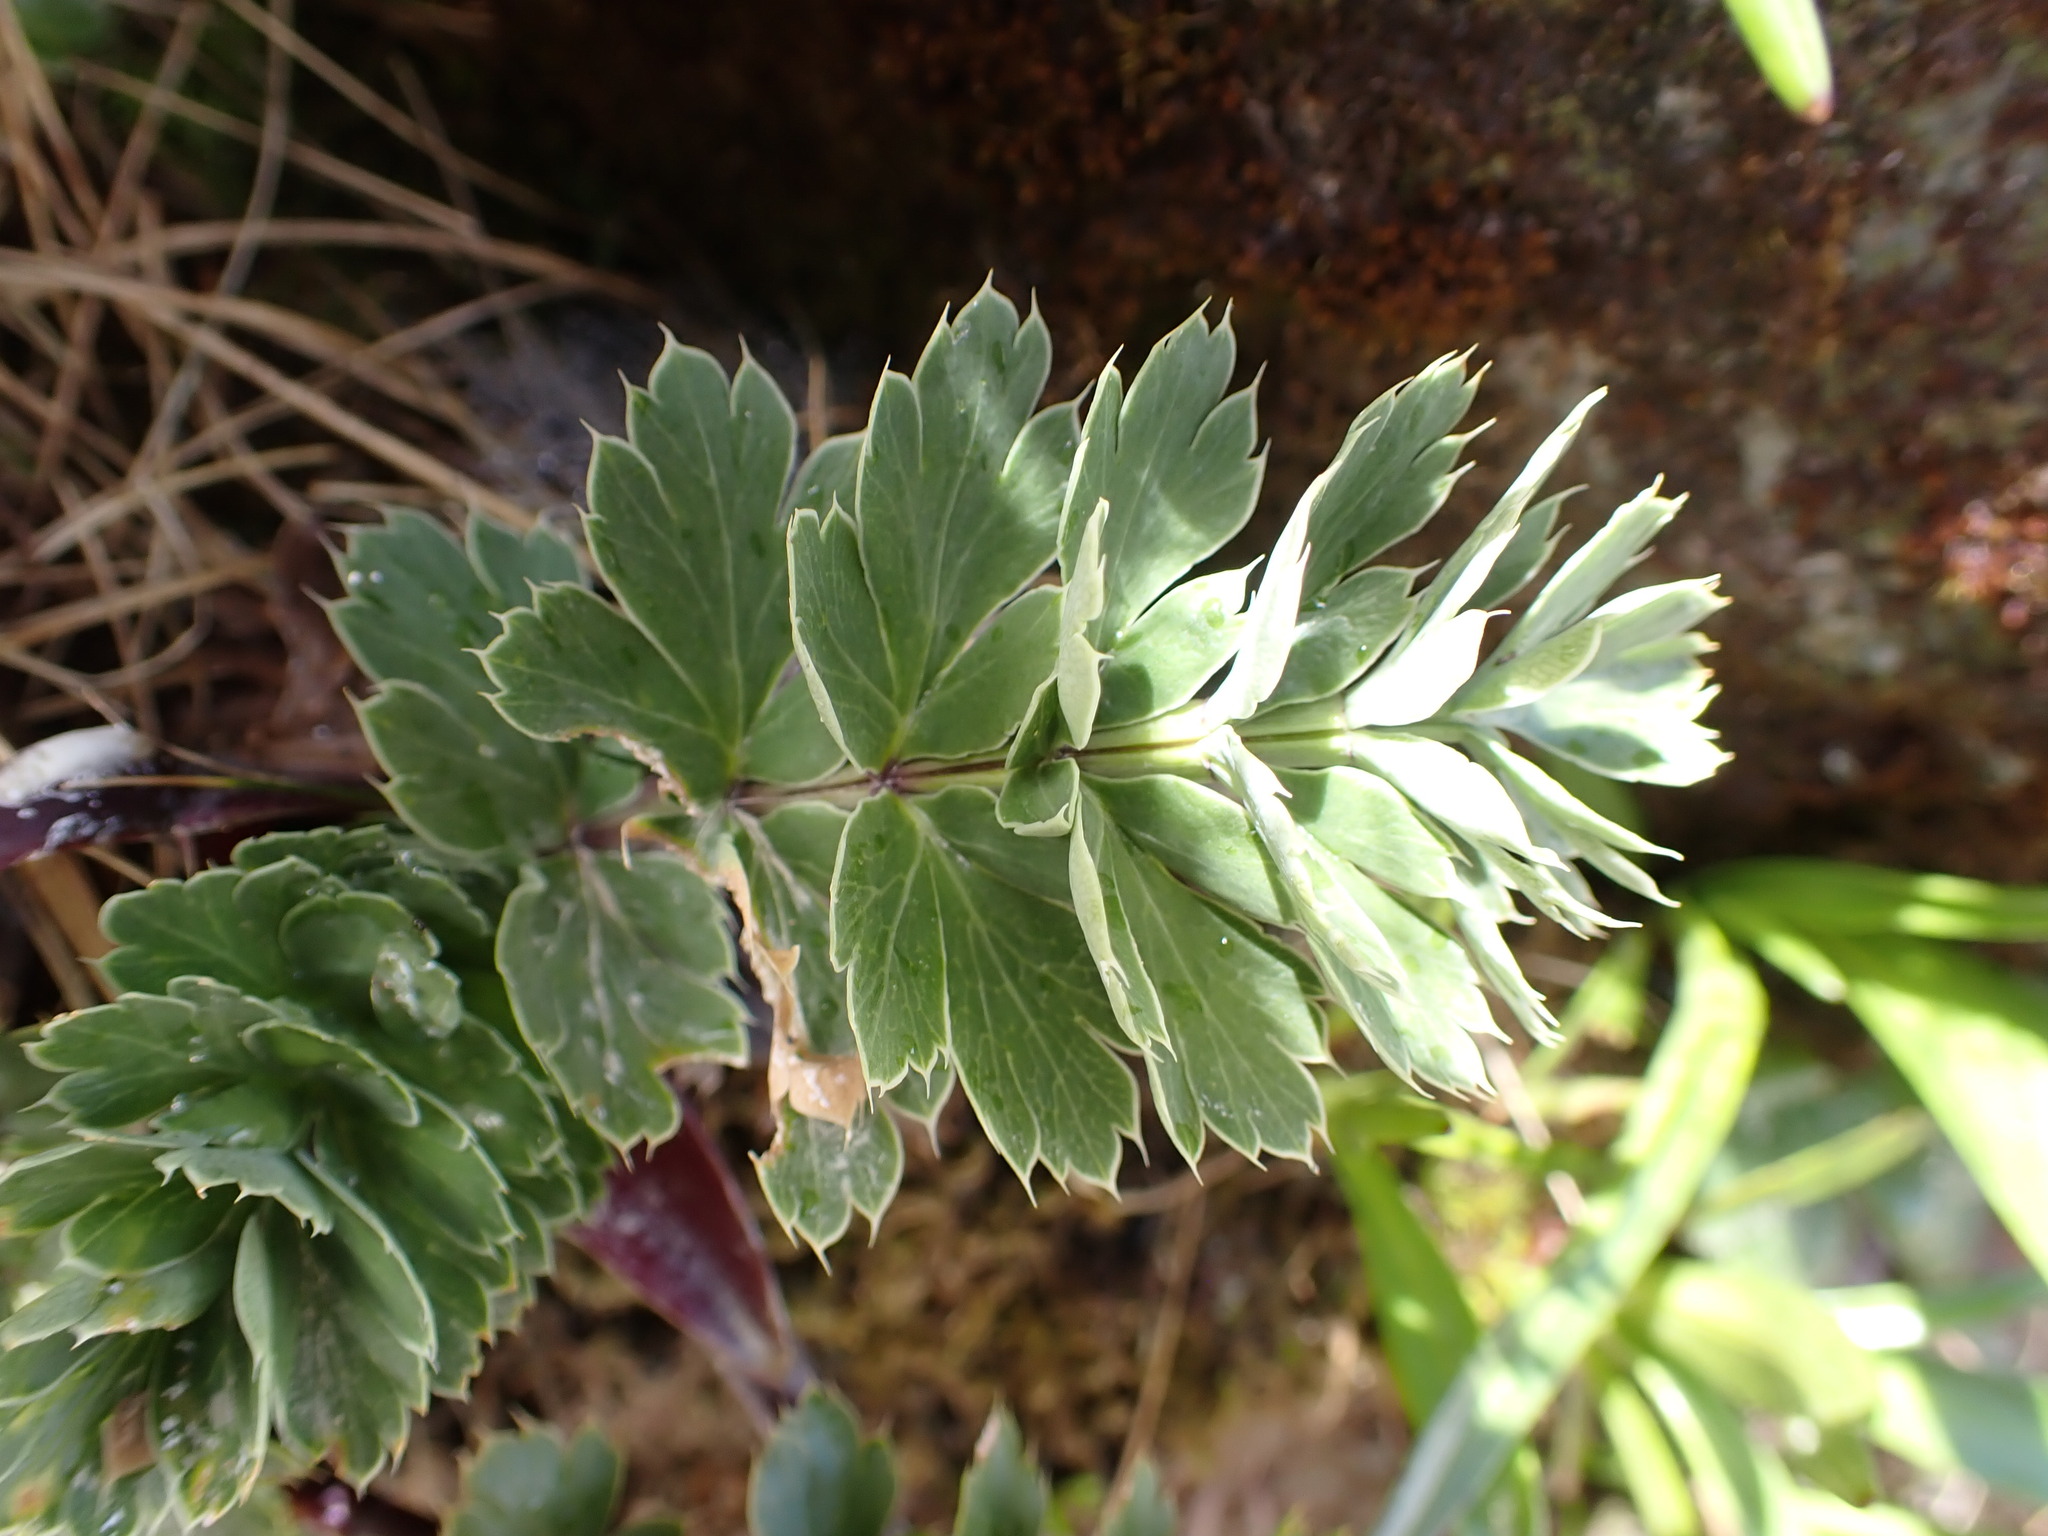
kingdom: Plantae
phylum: Tracheophyta
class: Magnoliopsida
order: Apiales
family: Apiaceae
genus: Anisotome
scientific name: Anisotome pilifera
